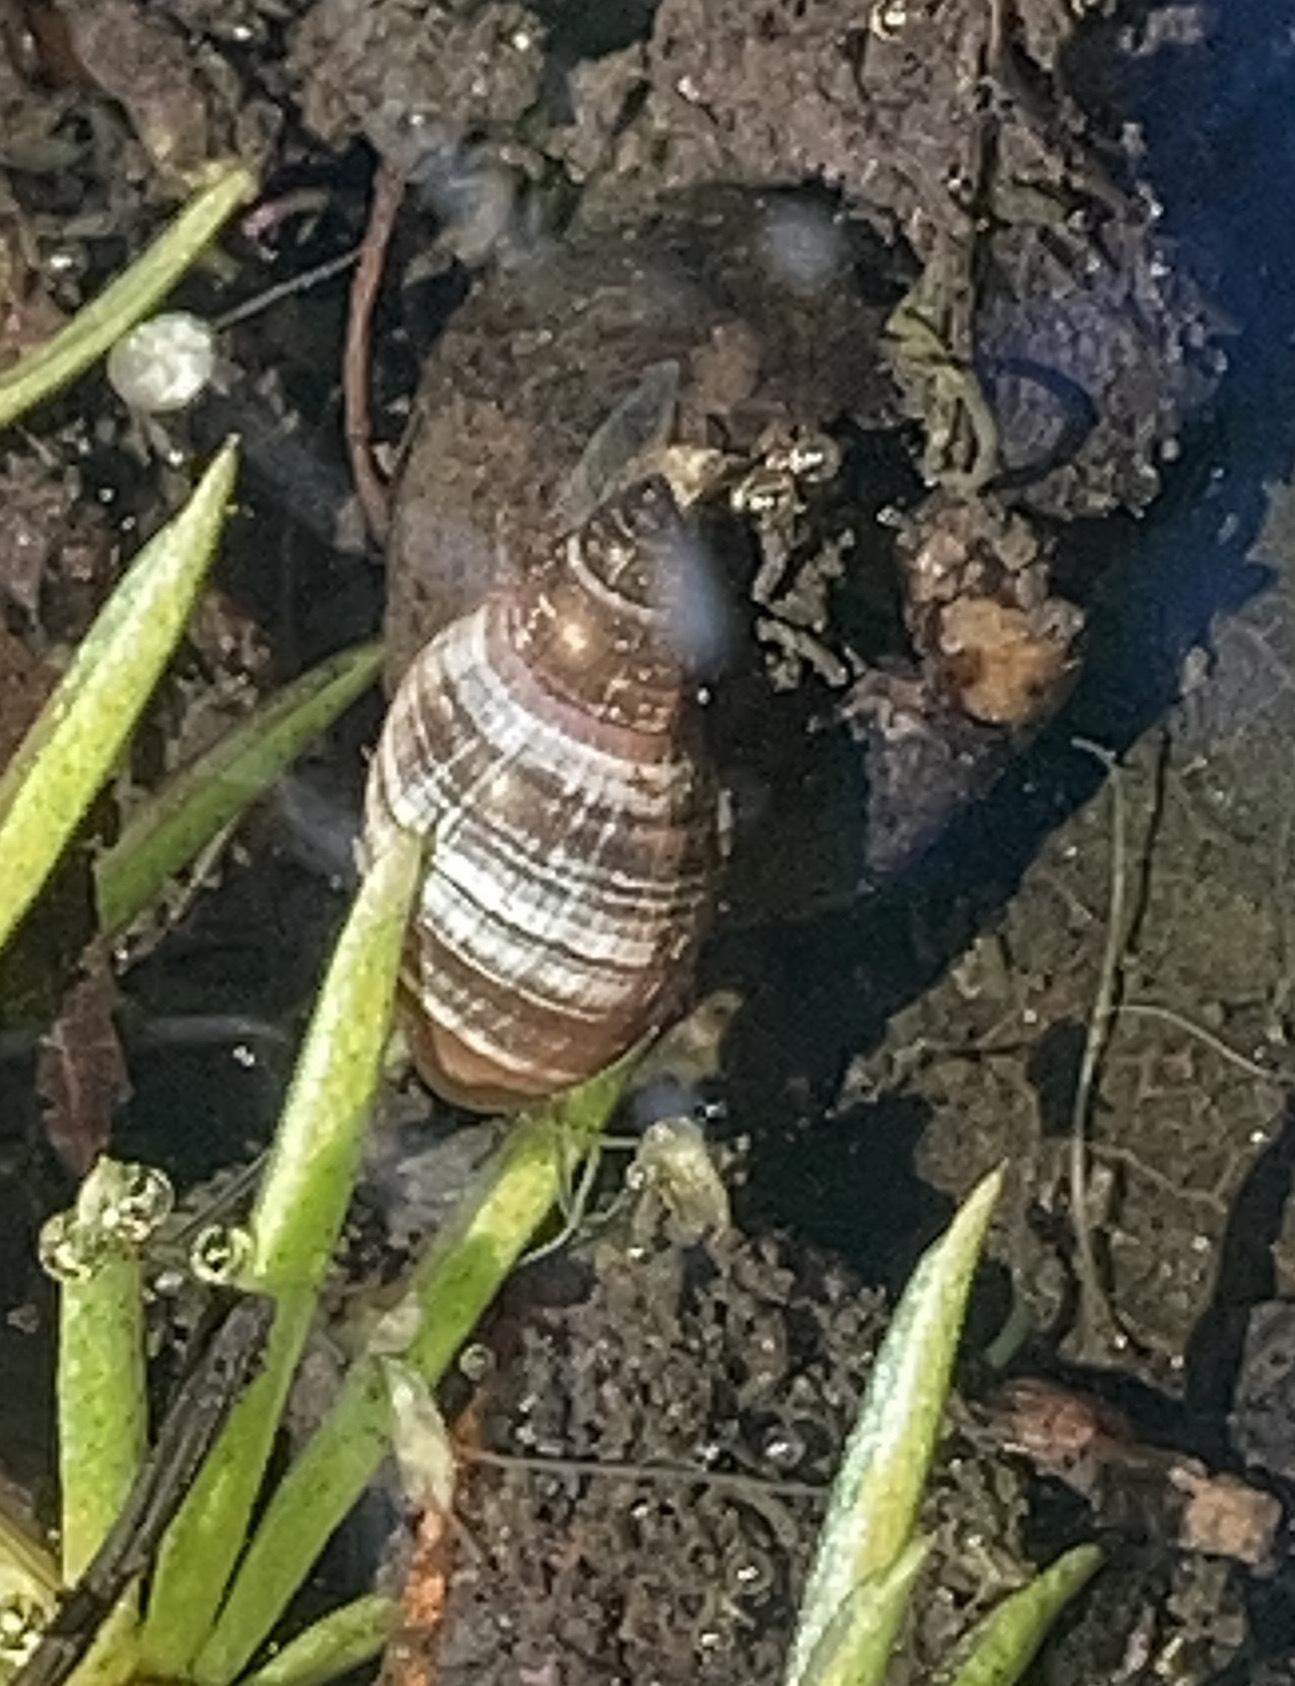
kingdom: Animalia
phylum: Mollusca
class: Gastropoda
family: Physidae
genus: Physella
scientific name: Physella acuta
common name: European physa
